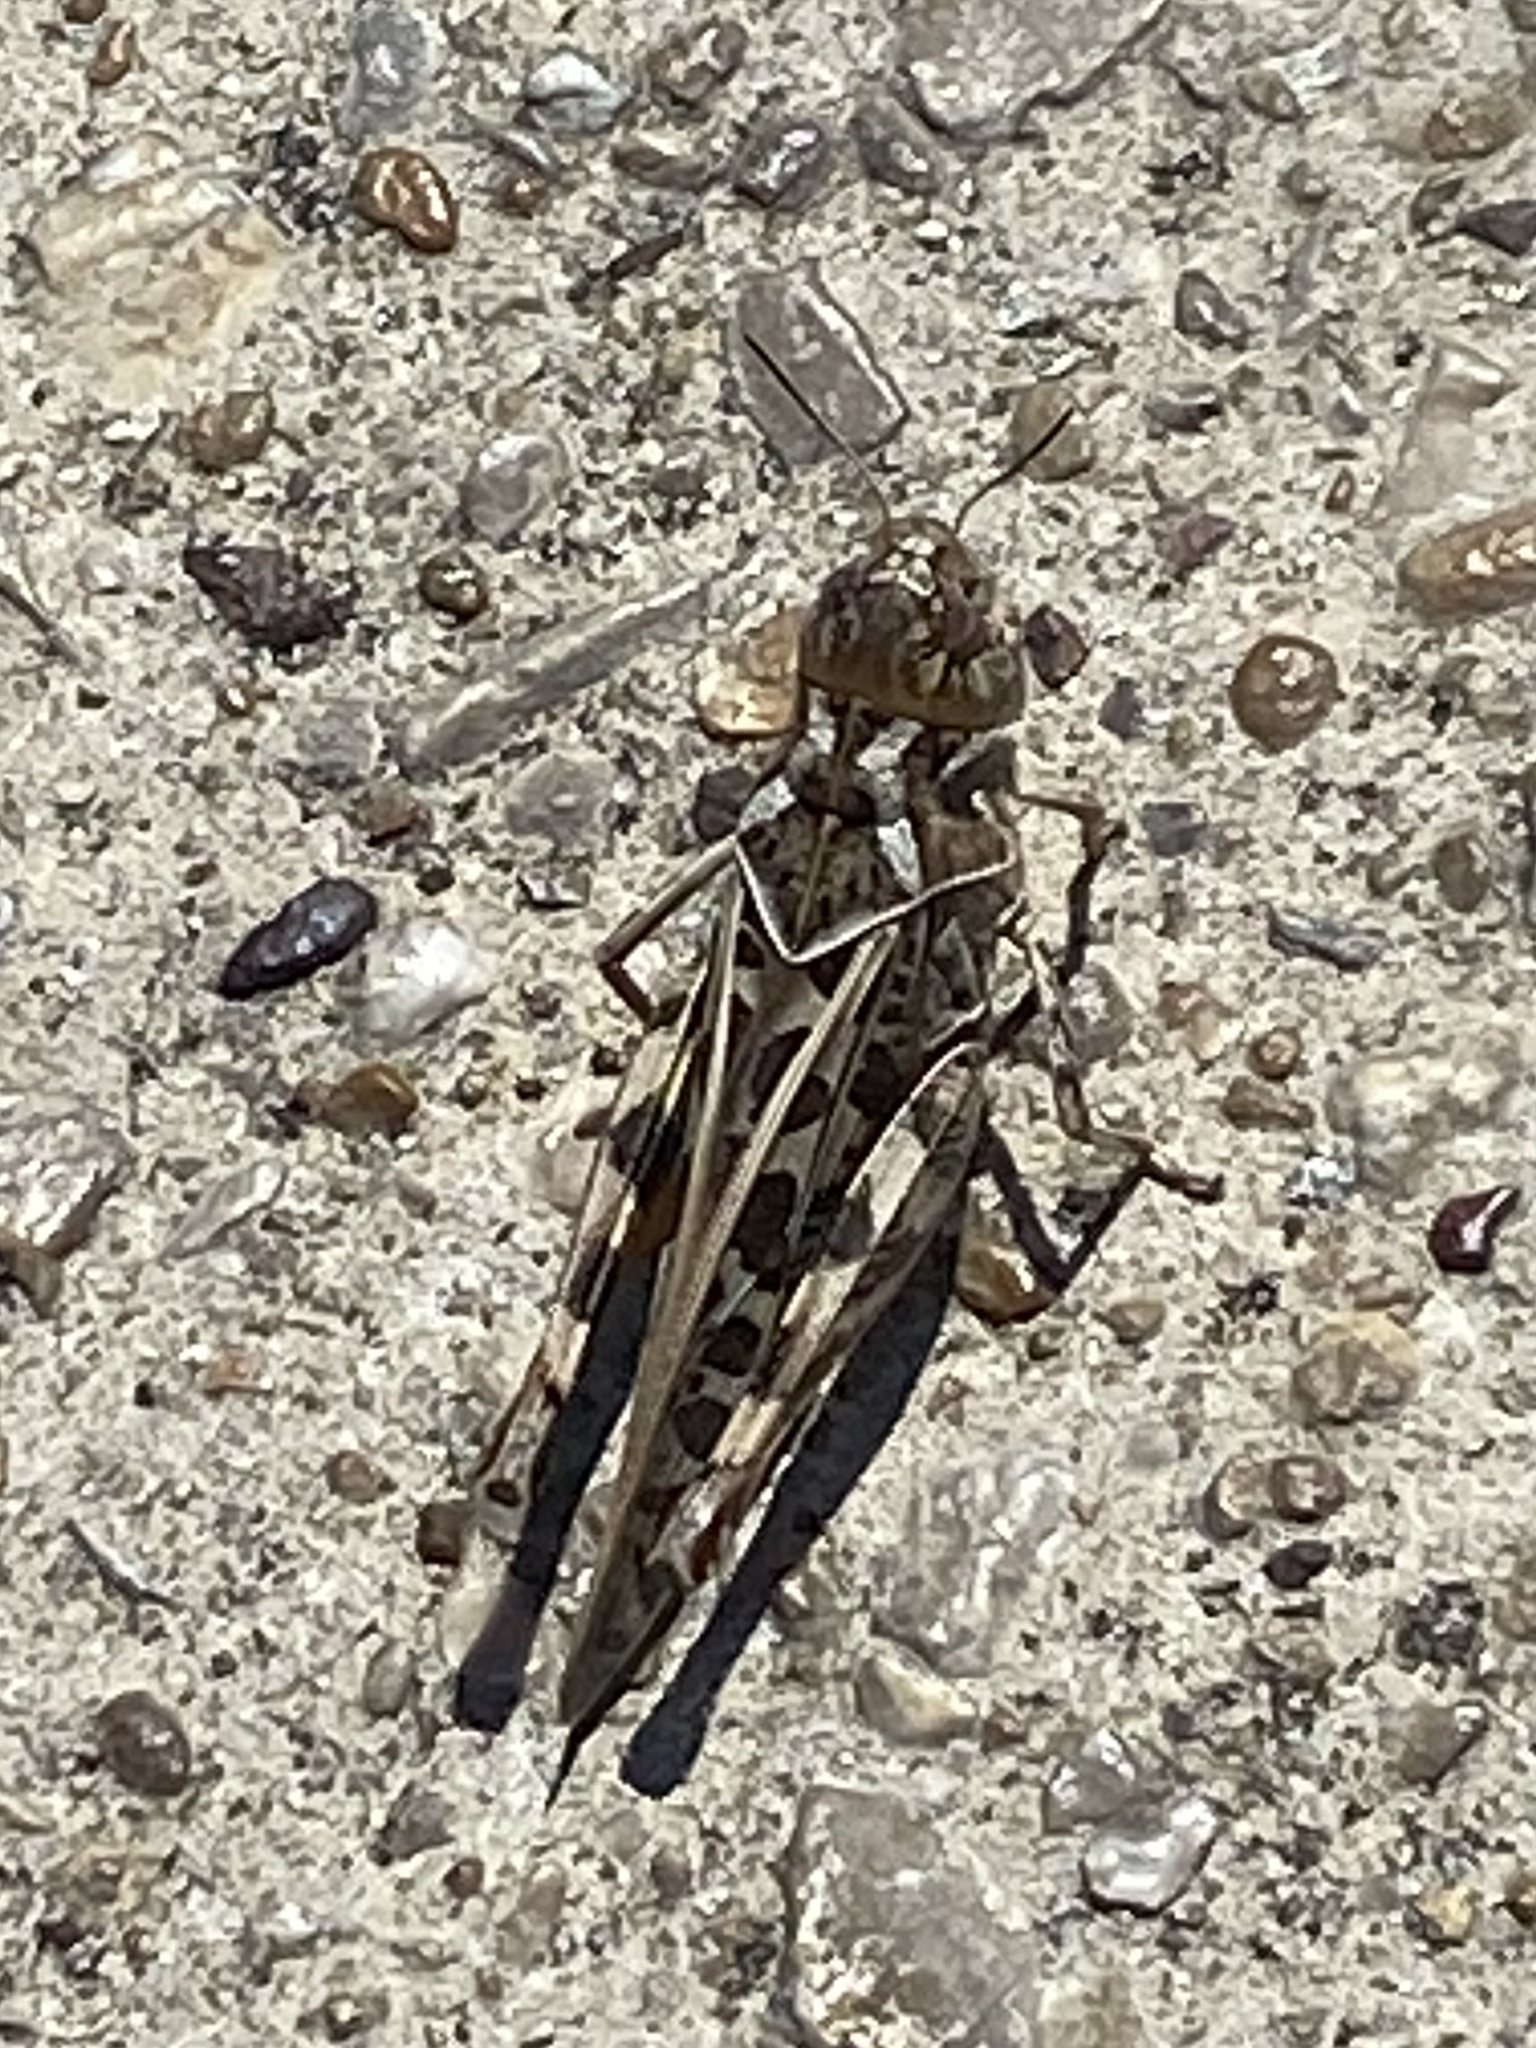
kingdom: Animalia
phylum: Arthropoda
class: Insecta
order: Orthoptera
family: Acrididae
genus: Hippiscus
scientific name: Hippiscus ocelote
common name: Wrinkled grasshopper
